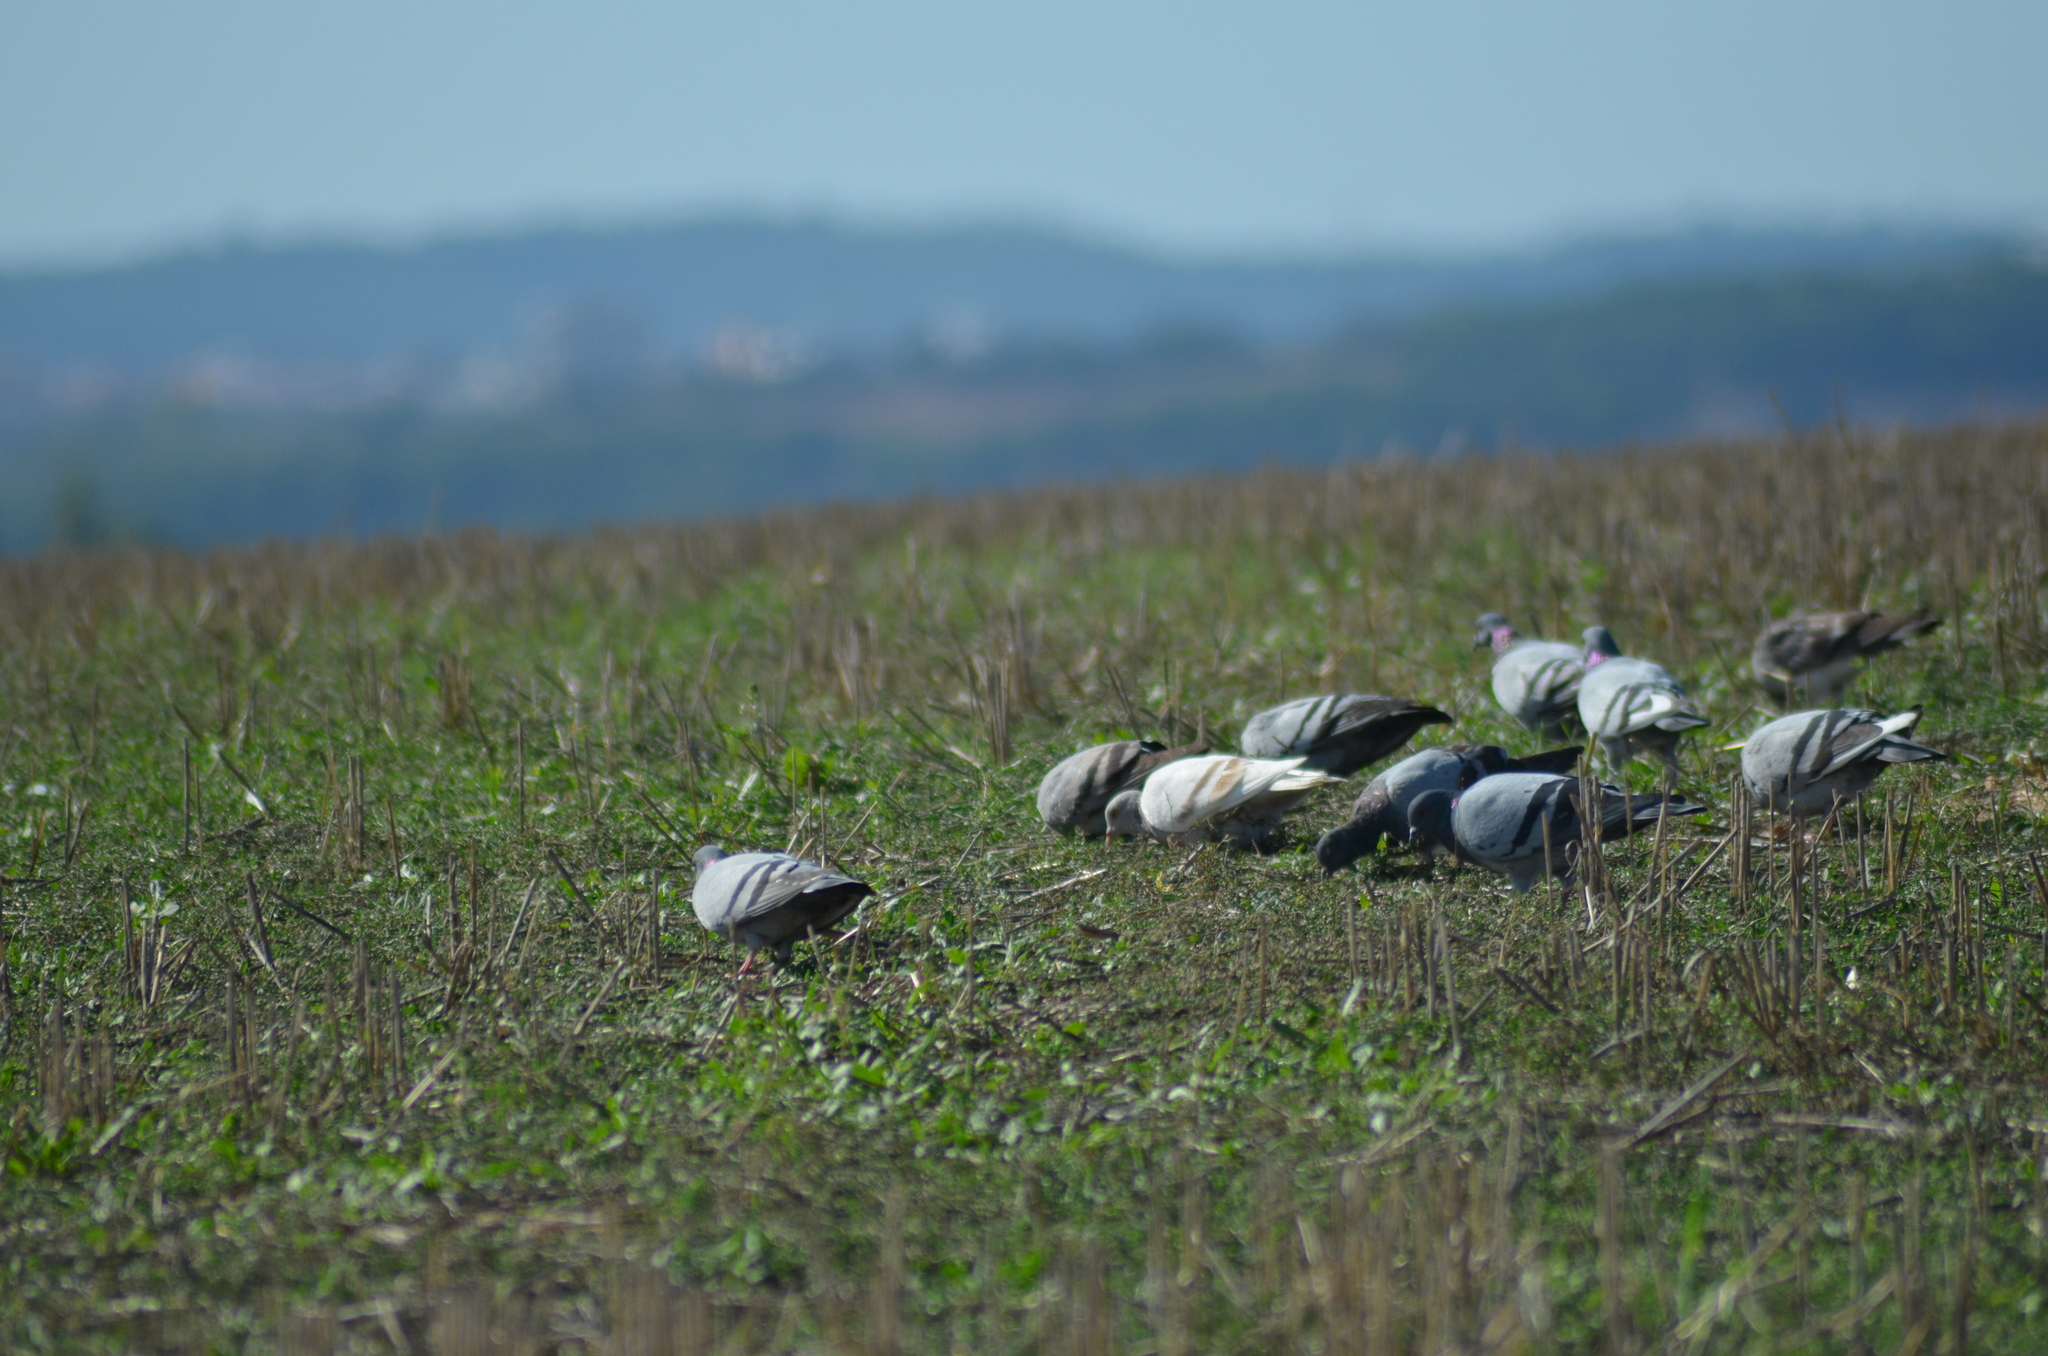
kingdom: Animalia
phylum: Chordata
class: Aves
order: Columbiformes
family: Columbidae
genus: Columba
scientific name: Columba livia
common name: Rock pigeon
